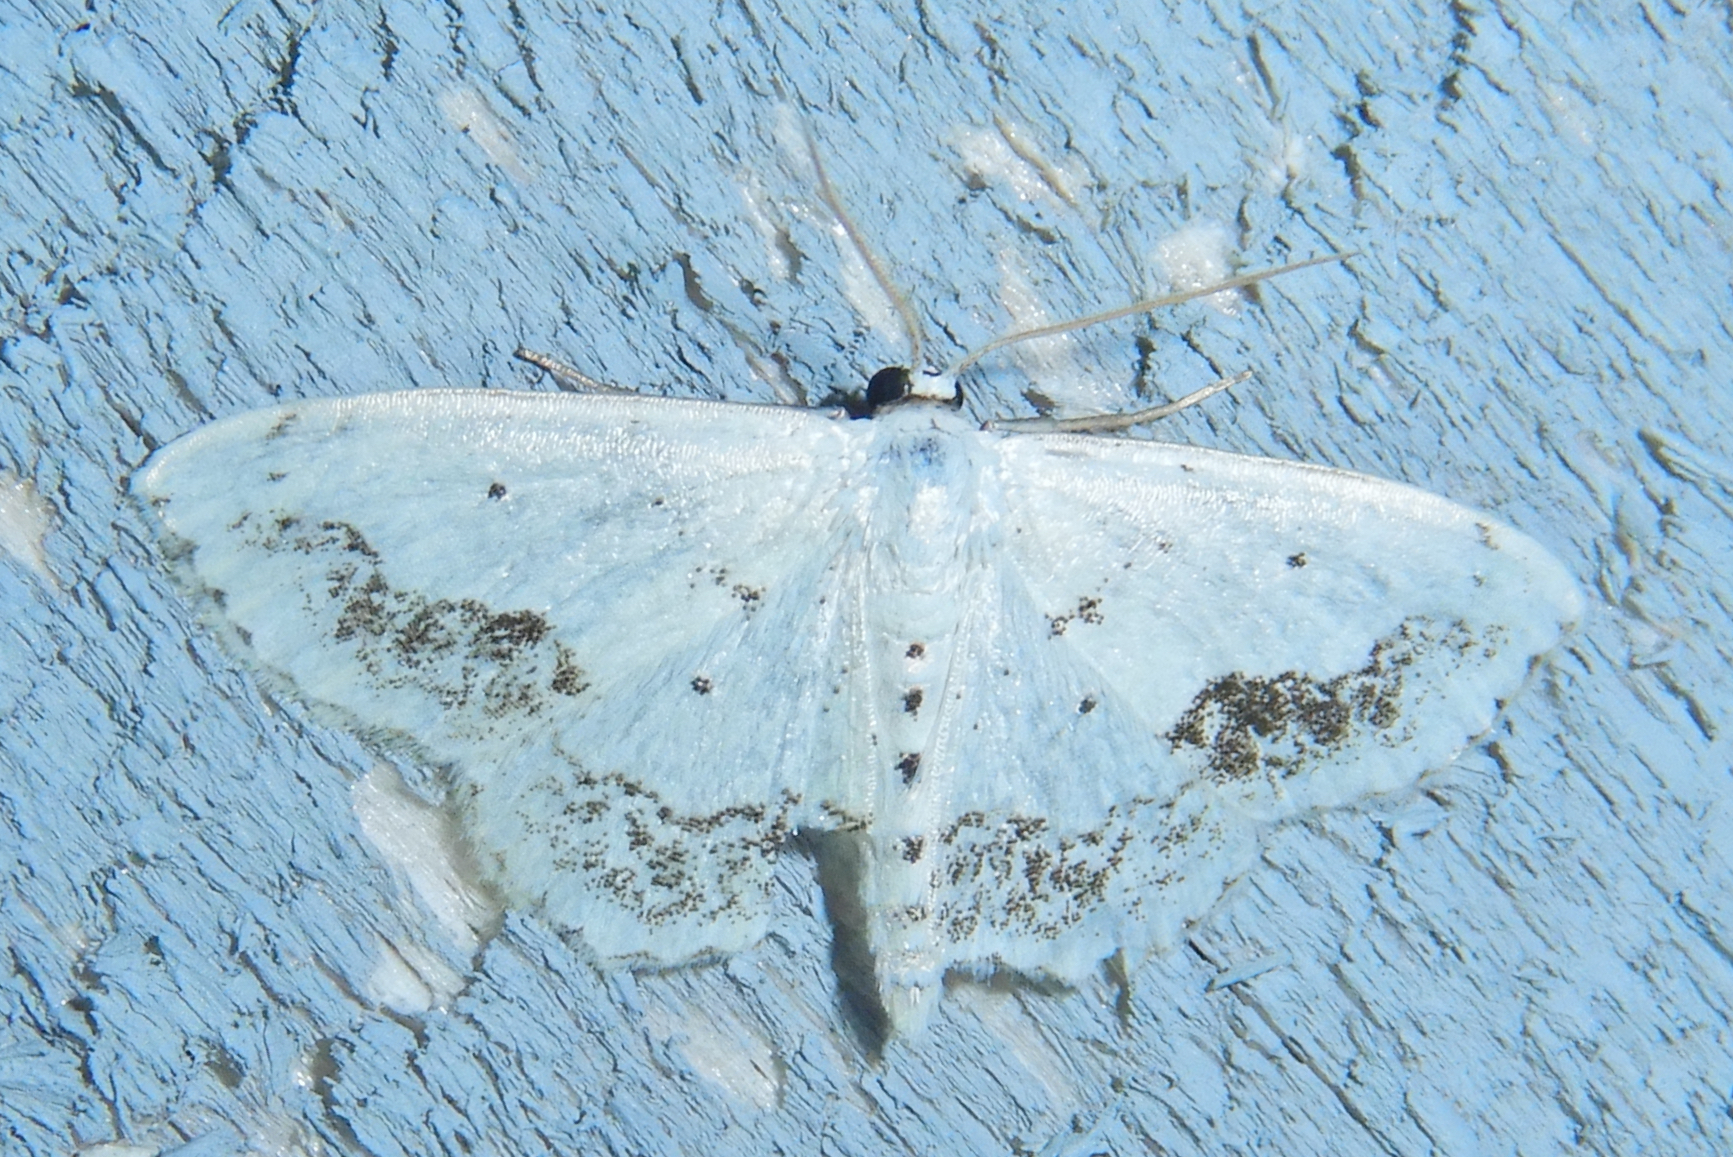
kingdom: Animalia
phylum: Arthropoda
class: Insecta
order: Lepidoptera
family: Geometridae
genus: Scopula
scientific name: Scopula limboundata
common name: Large lace border
